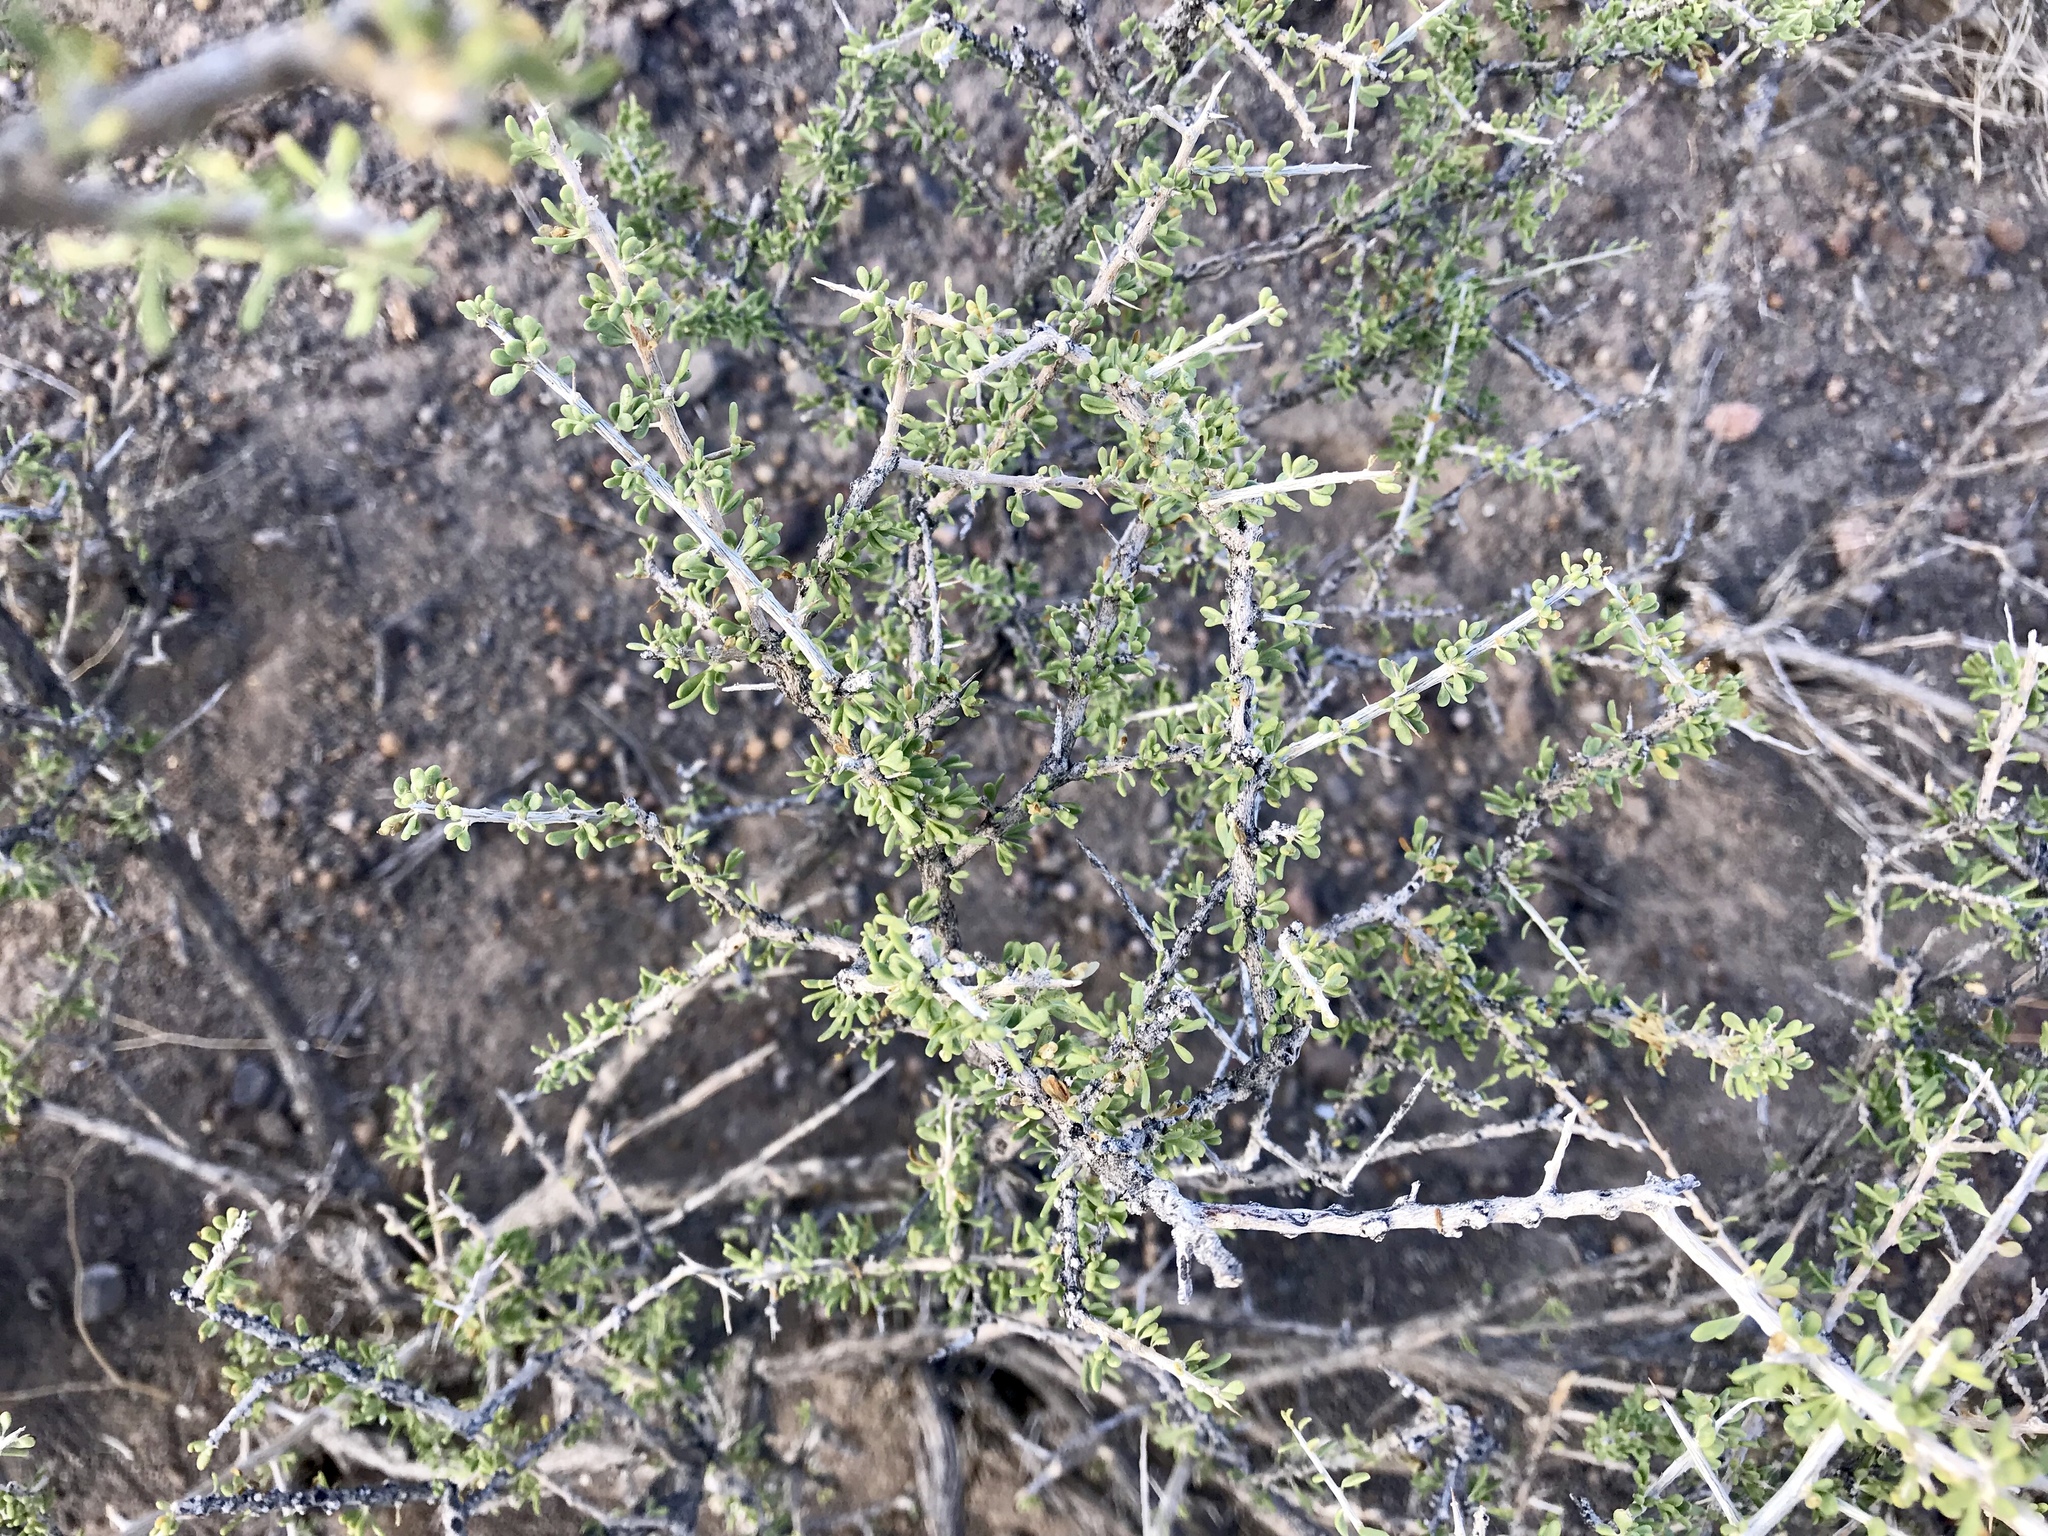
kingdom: Plantae
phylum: Tracheophyta
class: Magnoliopsida
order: Solanales
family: Solanaceae
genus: Lycium
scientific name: Lycium andersonii
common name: Water-jacket
